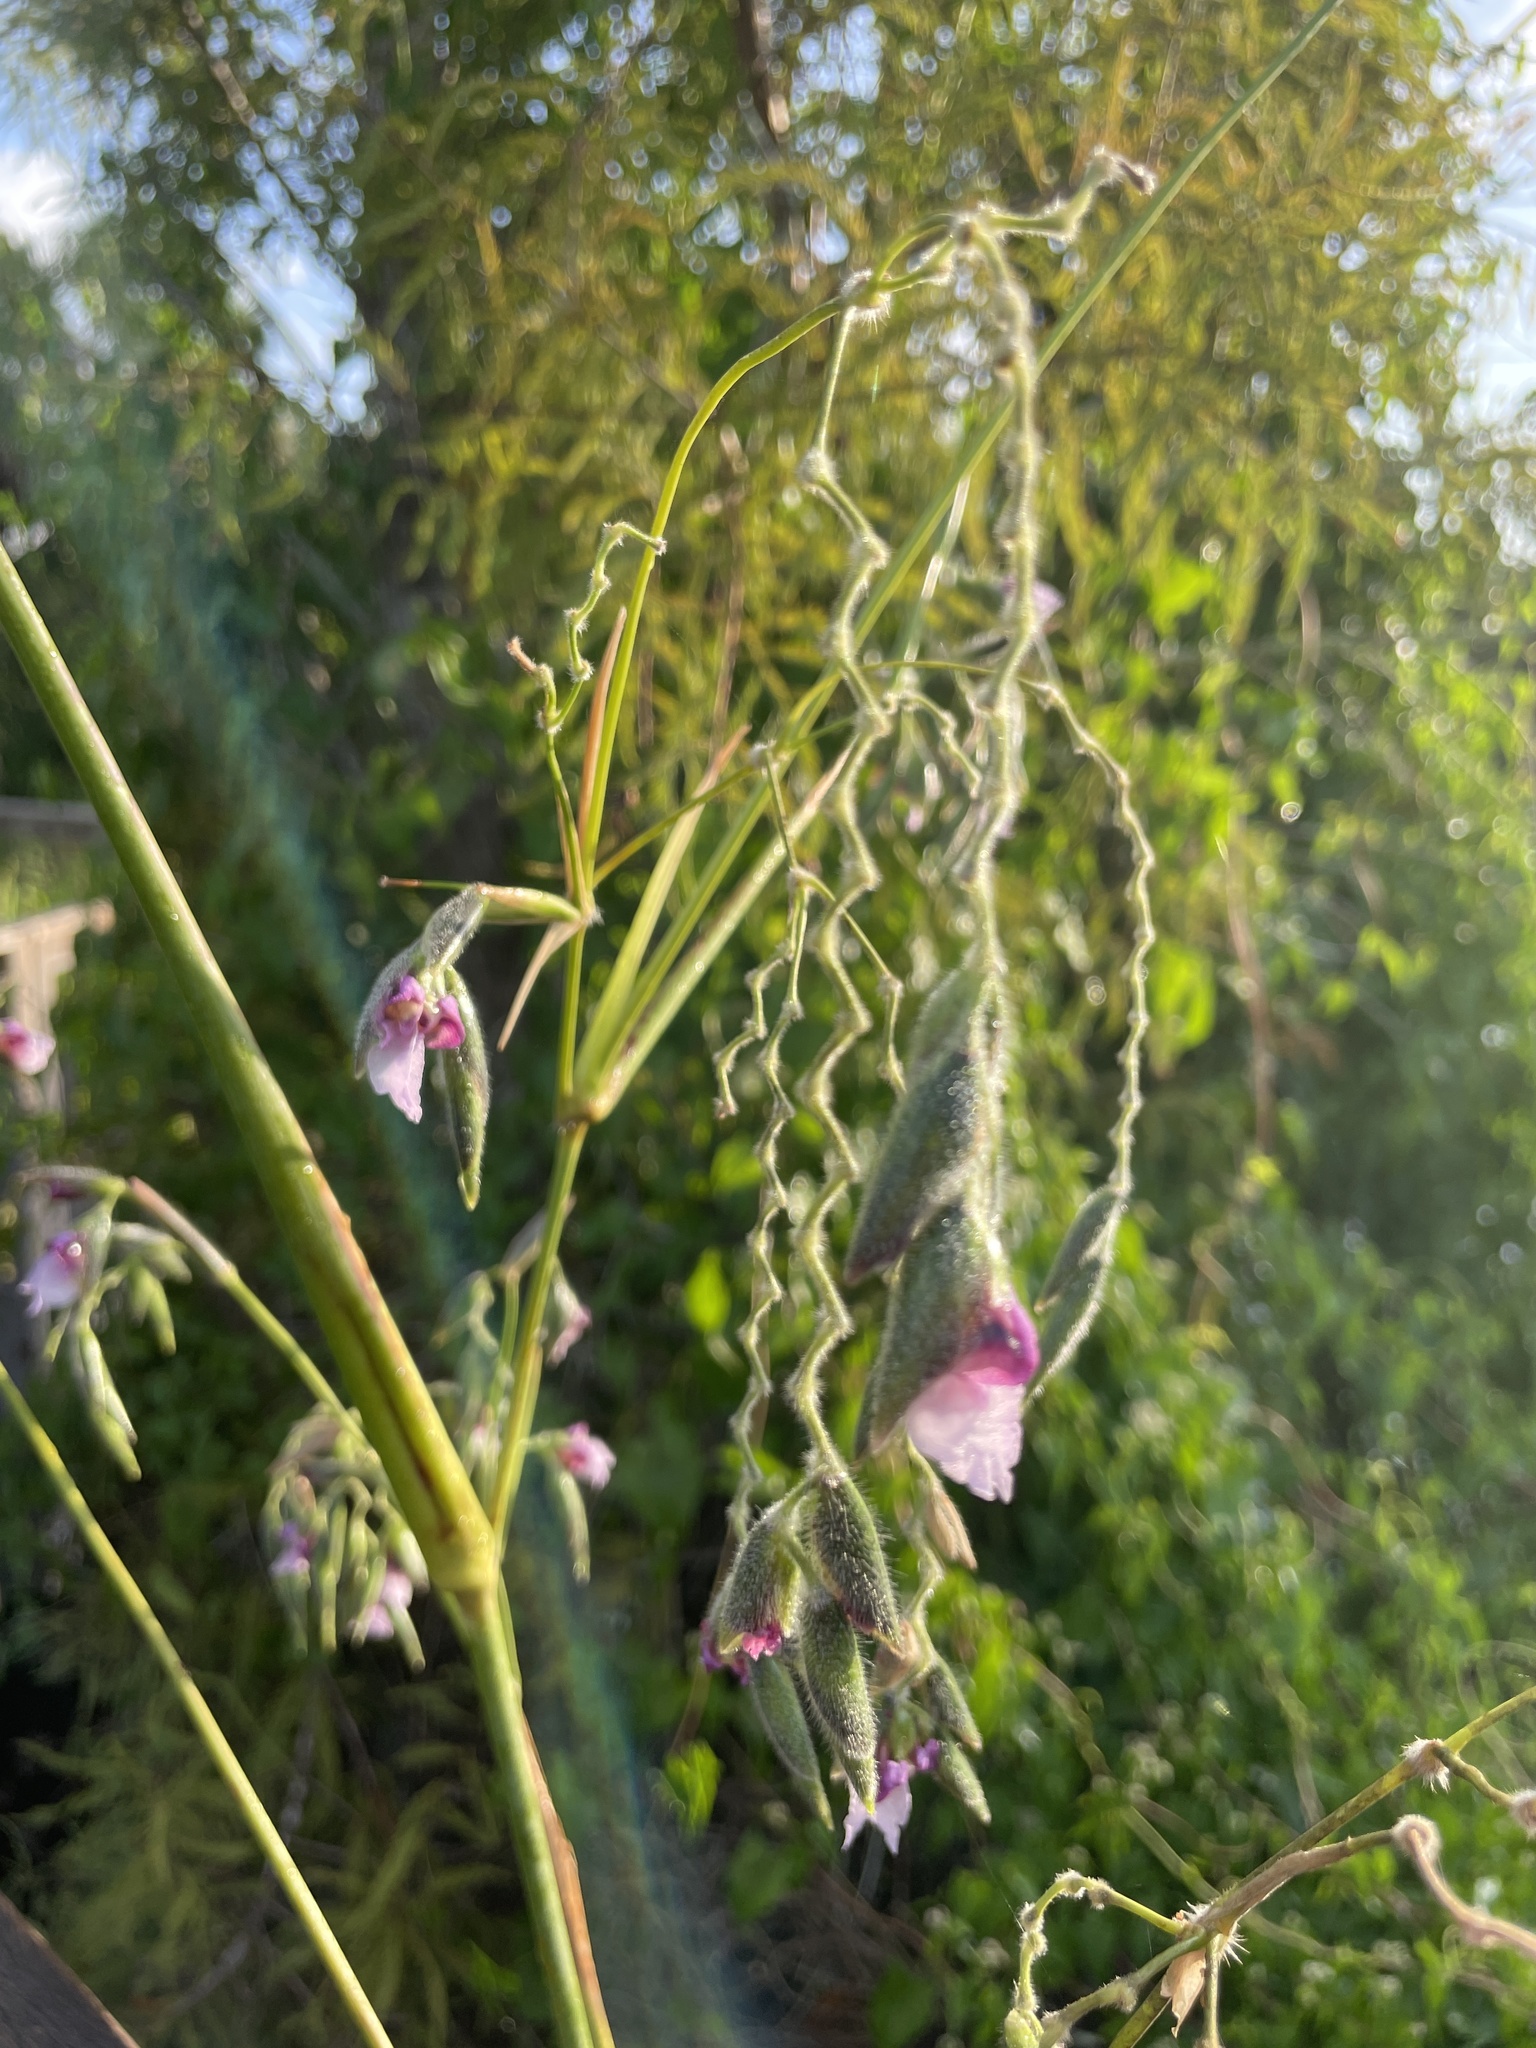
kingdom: Plantae
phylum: Tracheophyta
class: Liliopsida
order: Zingiberales
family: Marantaceae
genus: Thalia
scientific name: Thalia geniculata
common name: Arrowroot
